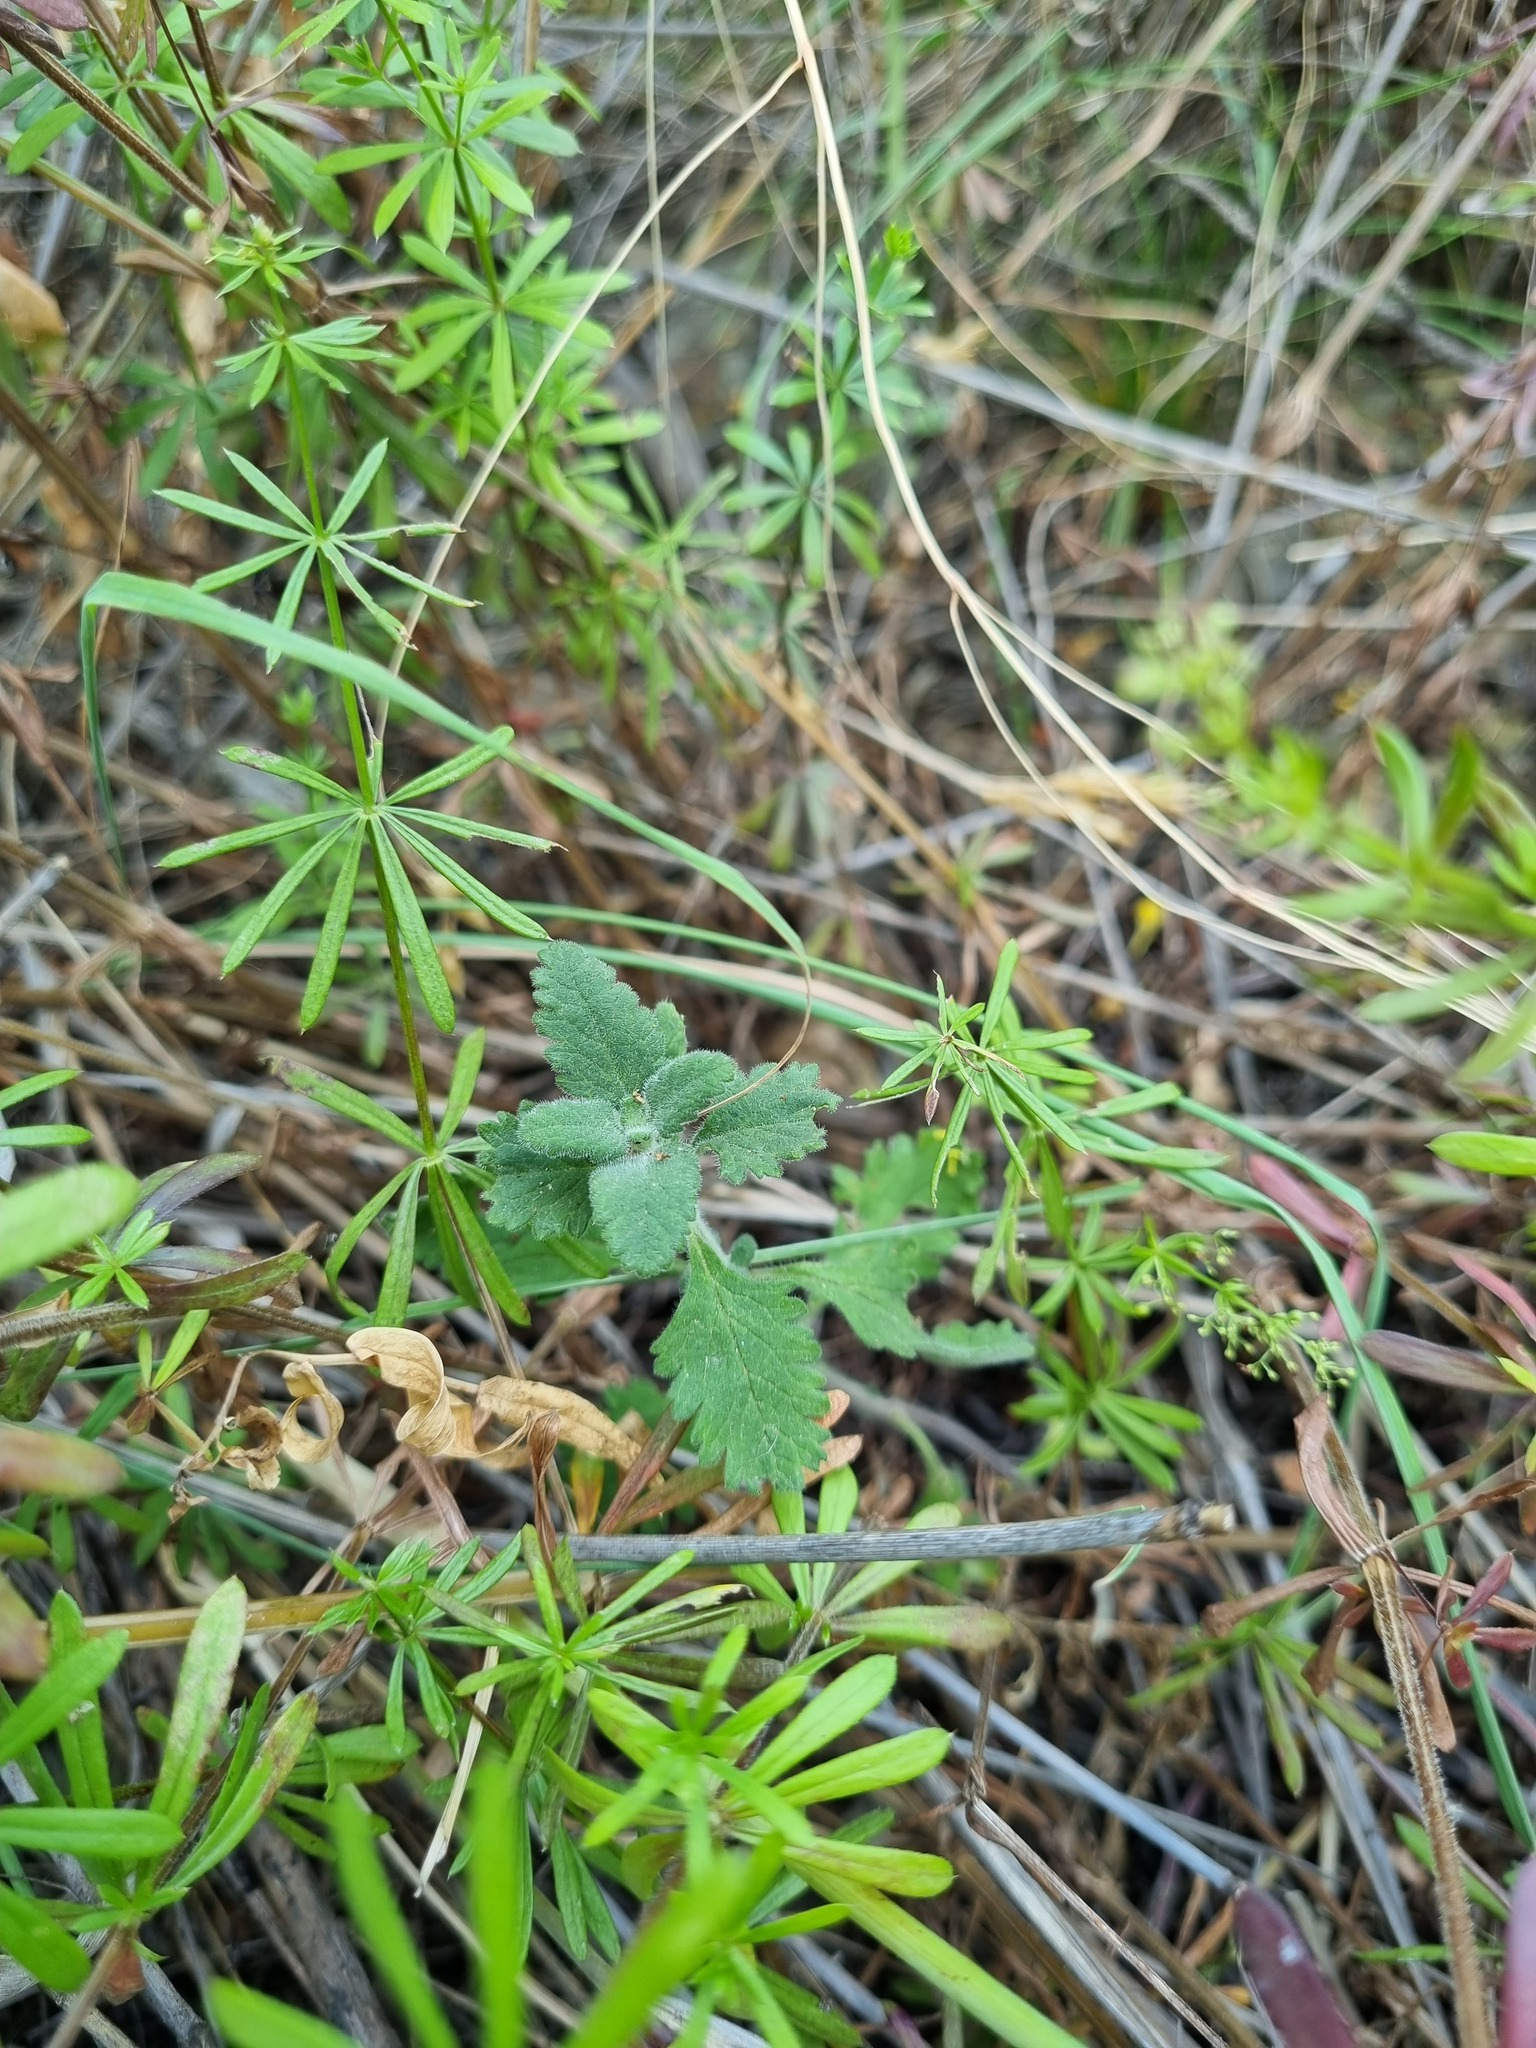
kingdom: Plantae
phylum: Tracheophyta
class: Magnoliopsida
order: Lamiales
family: Lamiaceae
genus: Teucrium
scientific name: Teucrium chamaedrys
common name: Wall germander
